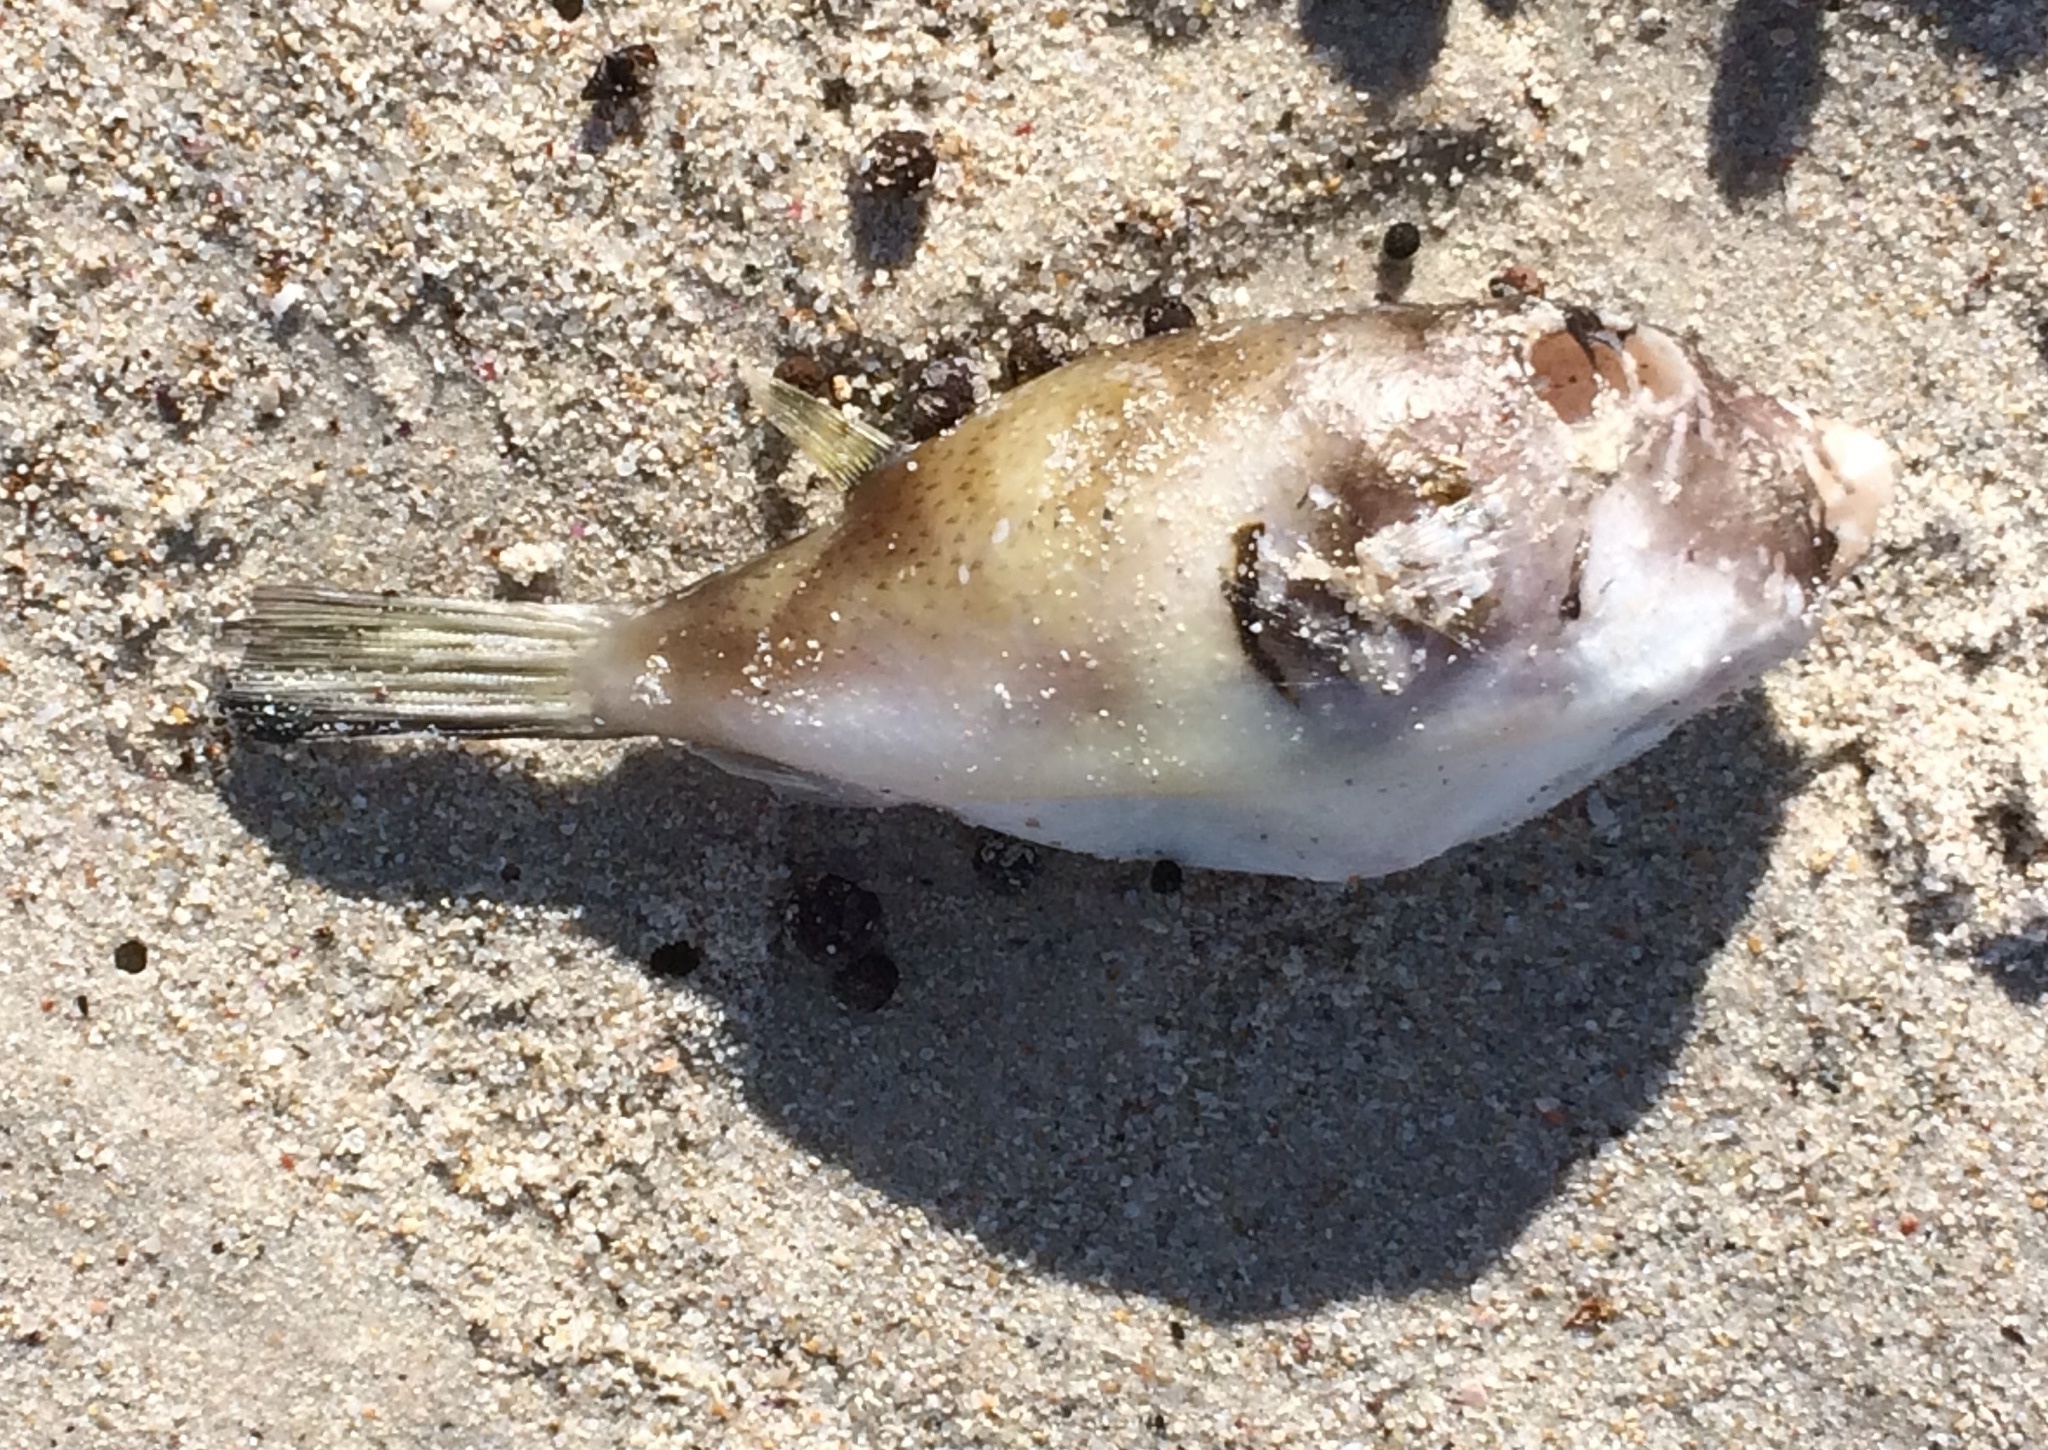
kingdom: Animalia
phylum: Chordata
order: Tetraodontiformes
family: Tetraodontidae
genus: Omegophora
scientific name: Omegophora armilla
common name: Ringed pufferfish
